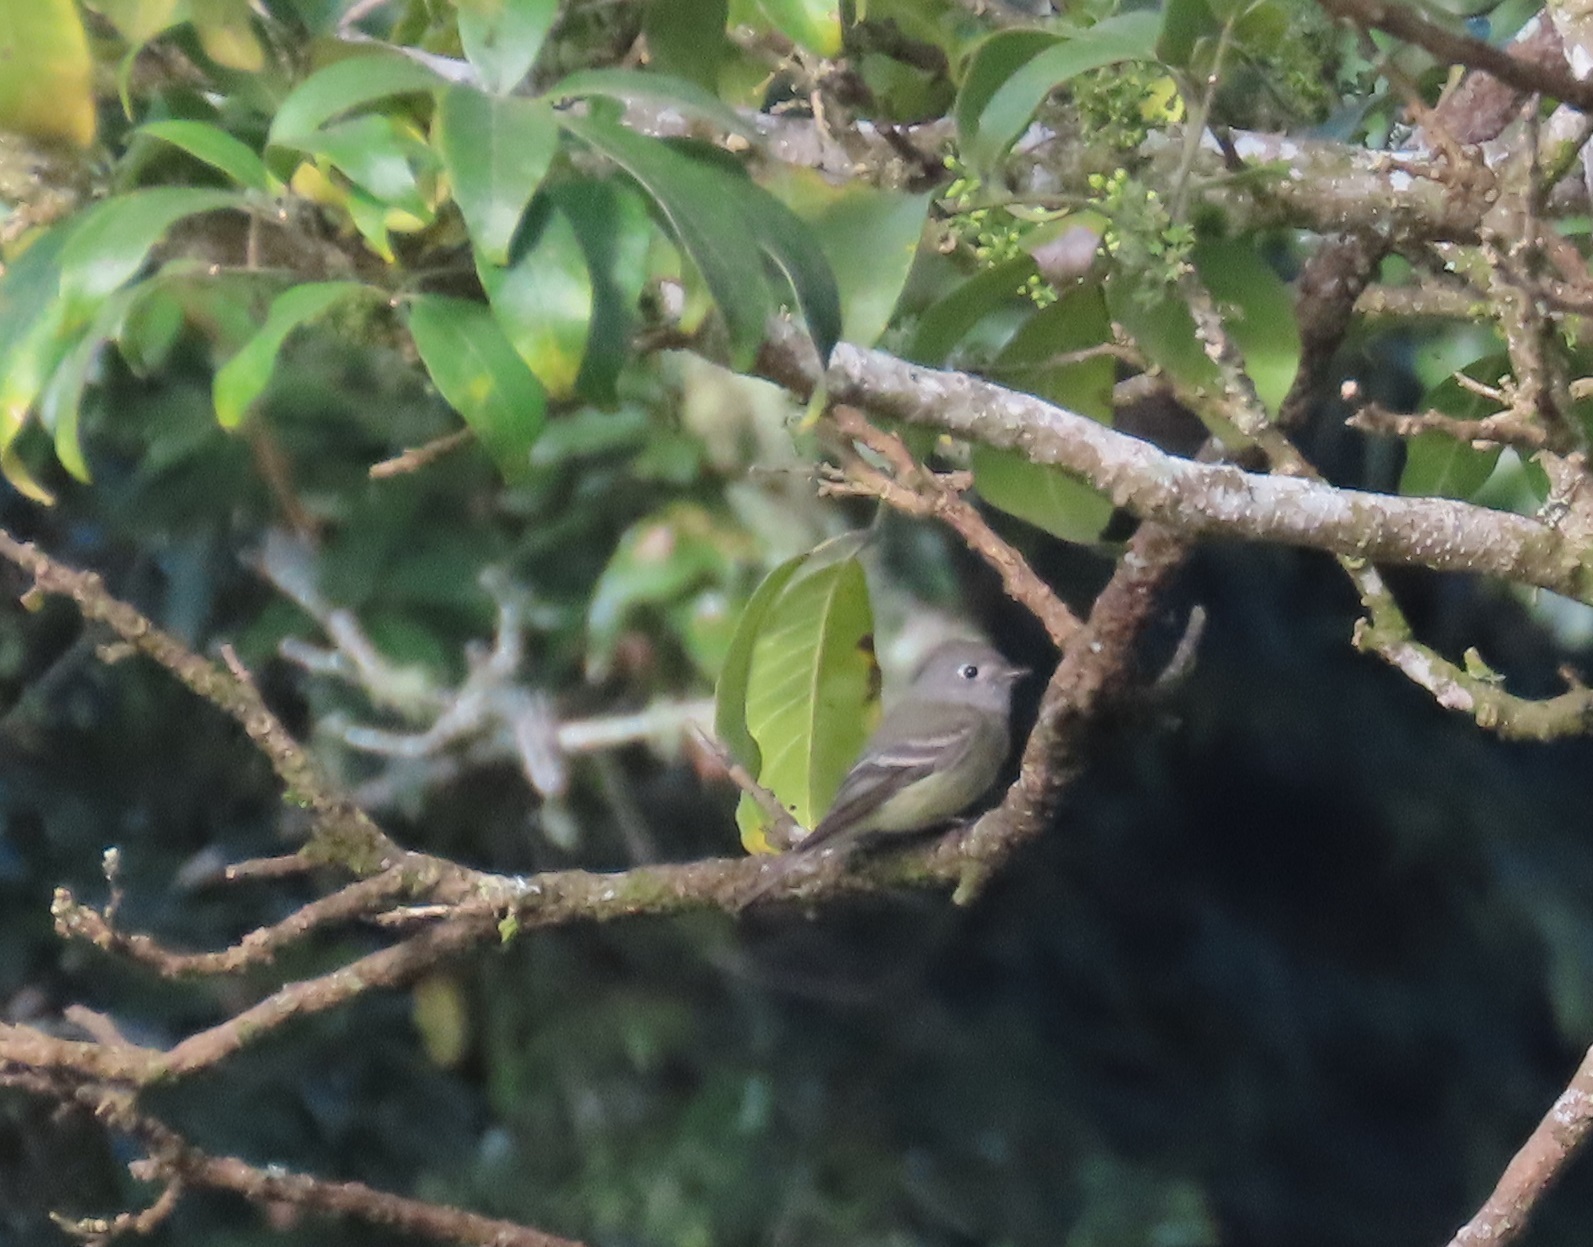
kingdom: Animalia
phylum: Chordata
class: Aves
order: Passeriformes
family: Tyrannidae
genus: Empidonax
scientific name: Empidonax hammondii
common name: Hammond's flycatcher
